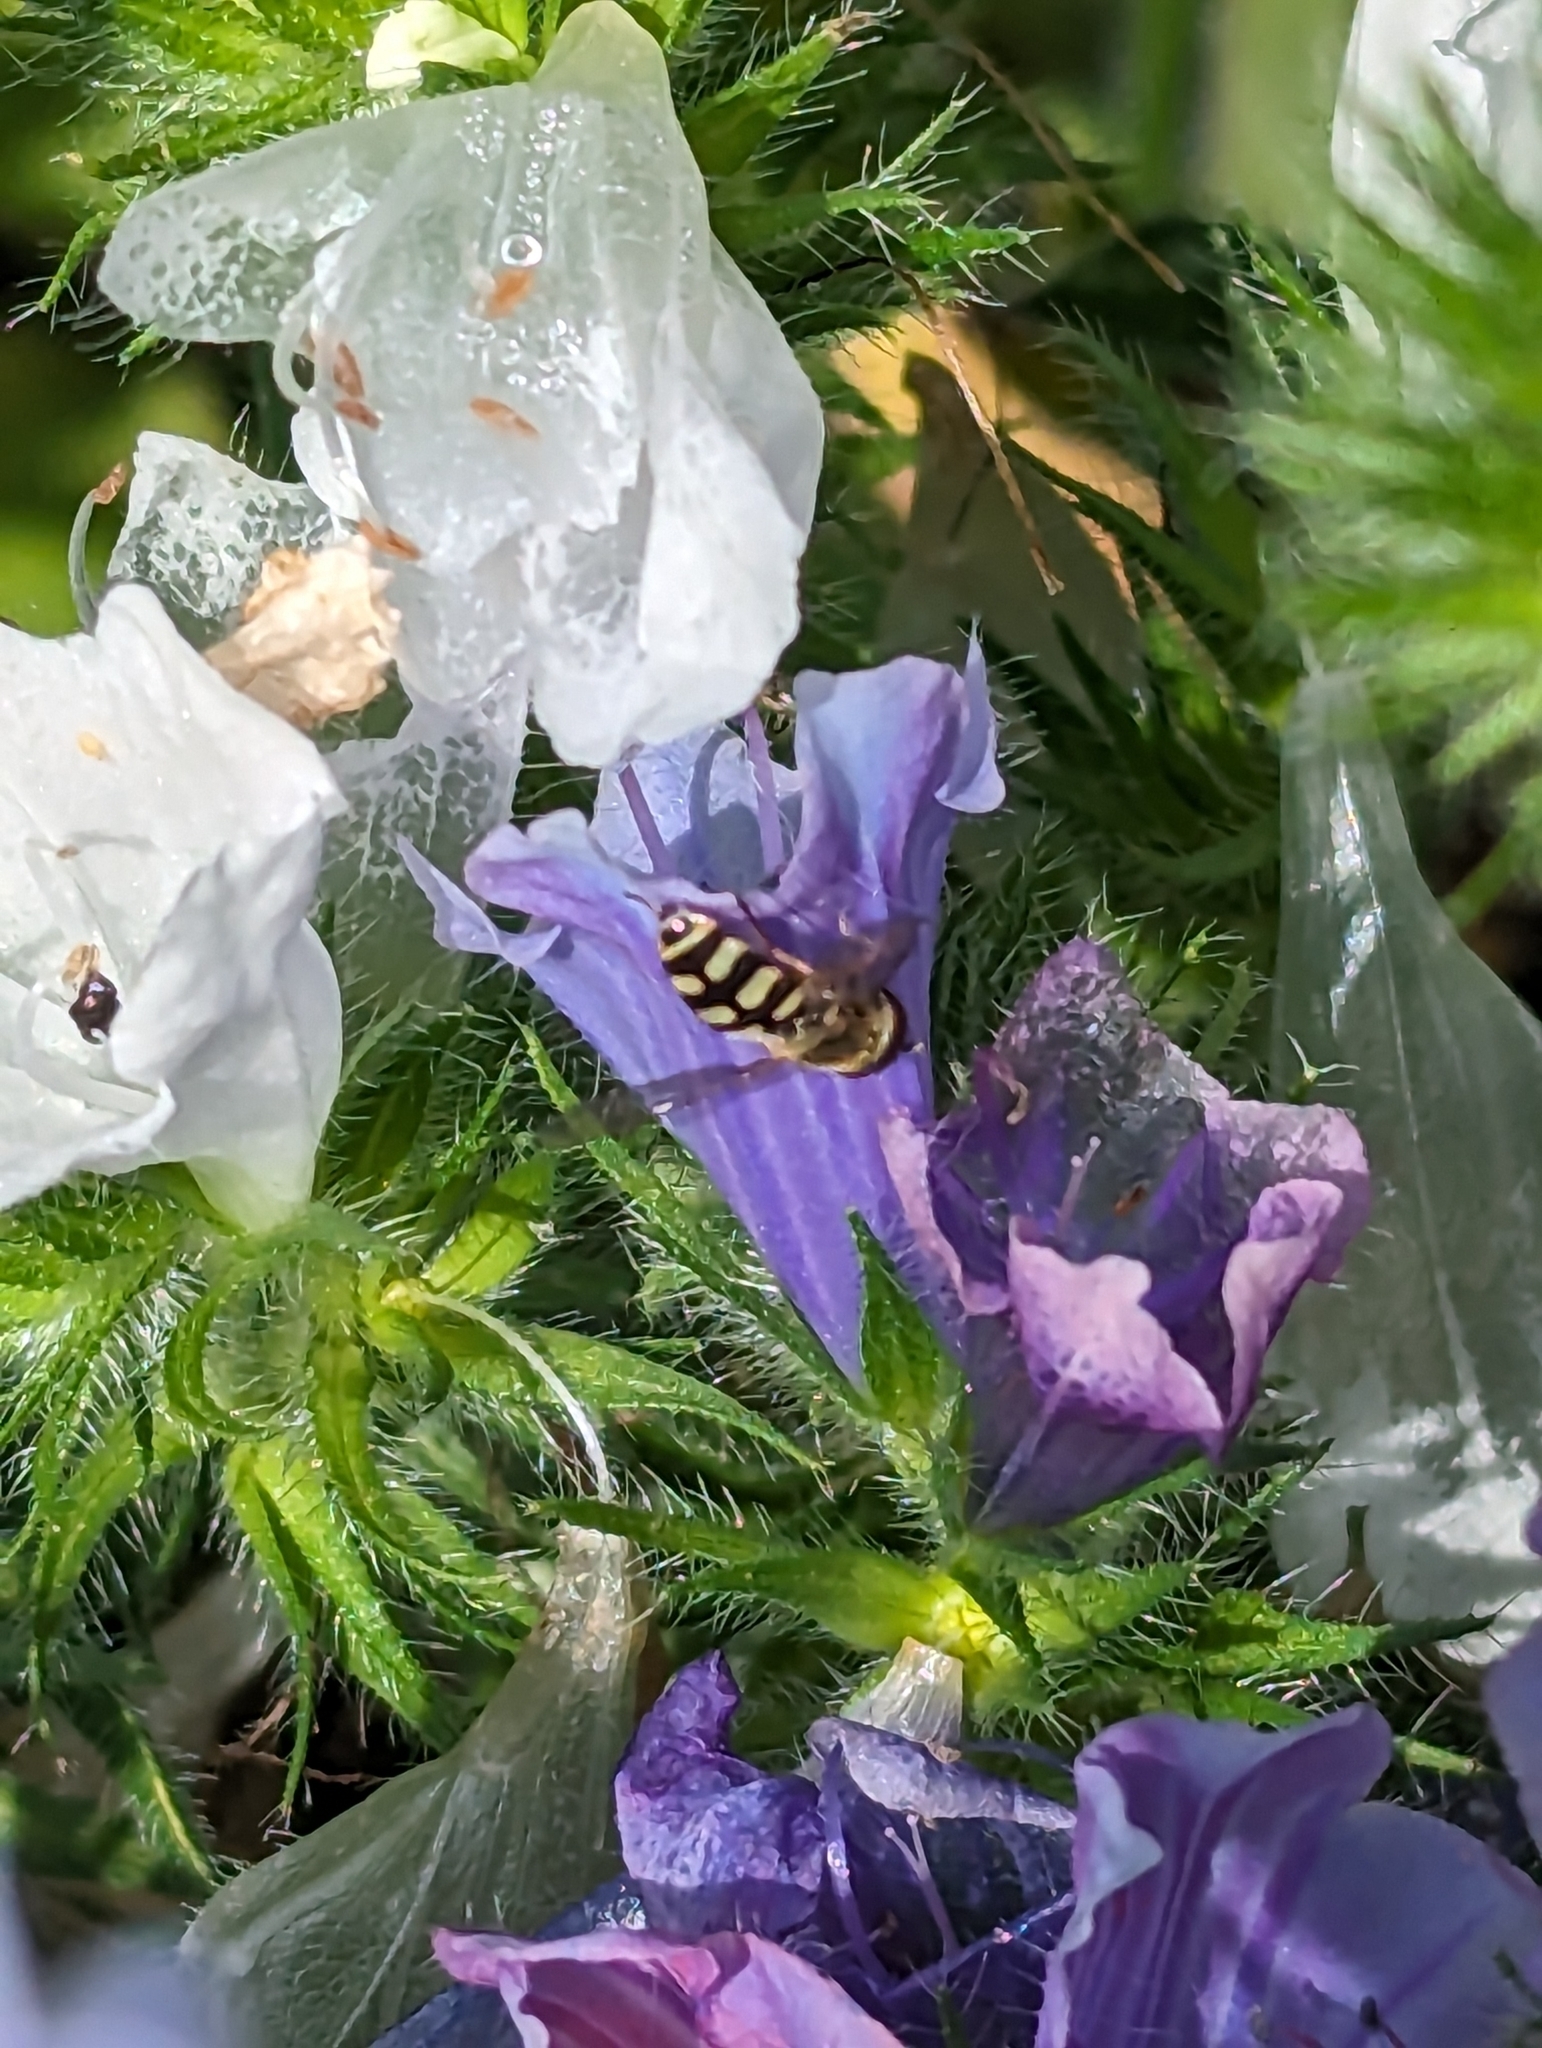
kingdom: Animalia
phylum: Arthropoda
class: Insecta
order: Diptera
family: Syrphidae
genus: Eupeodes
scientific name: Eupeodes corollae
